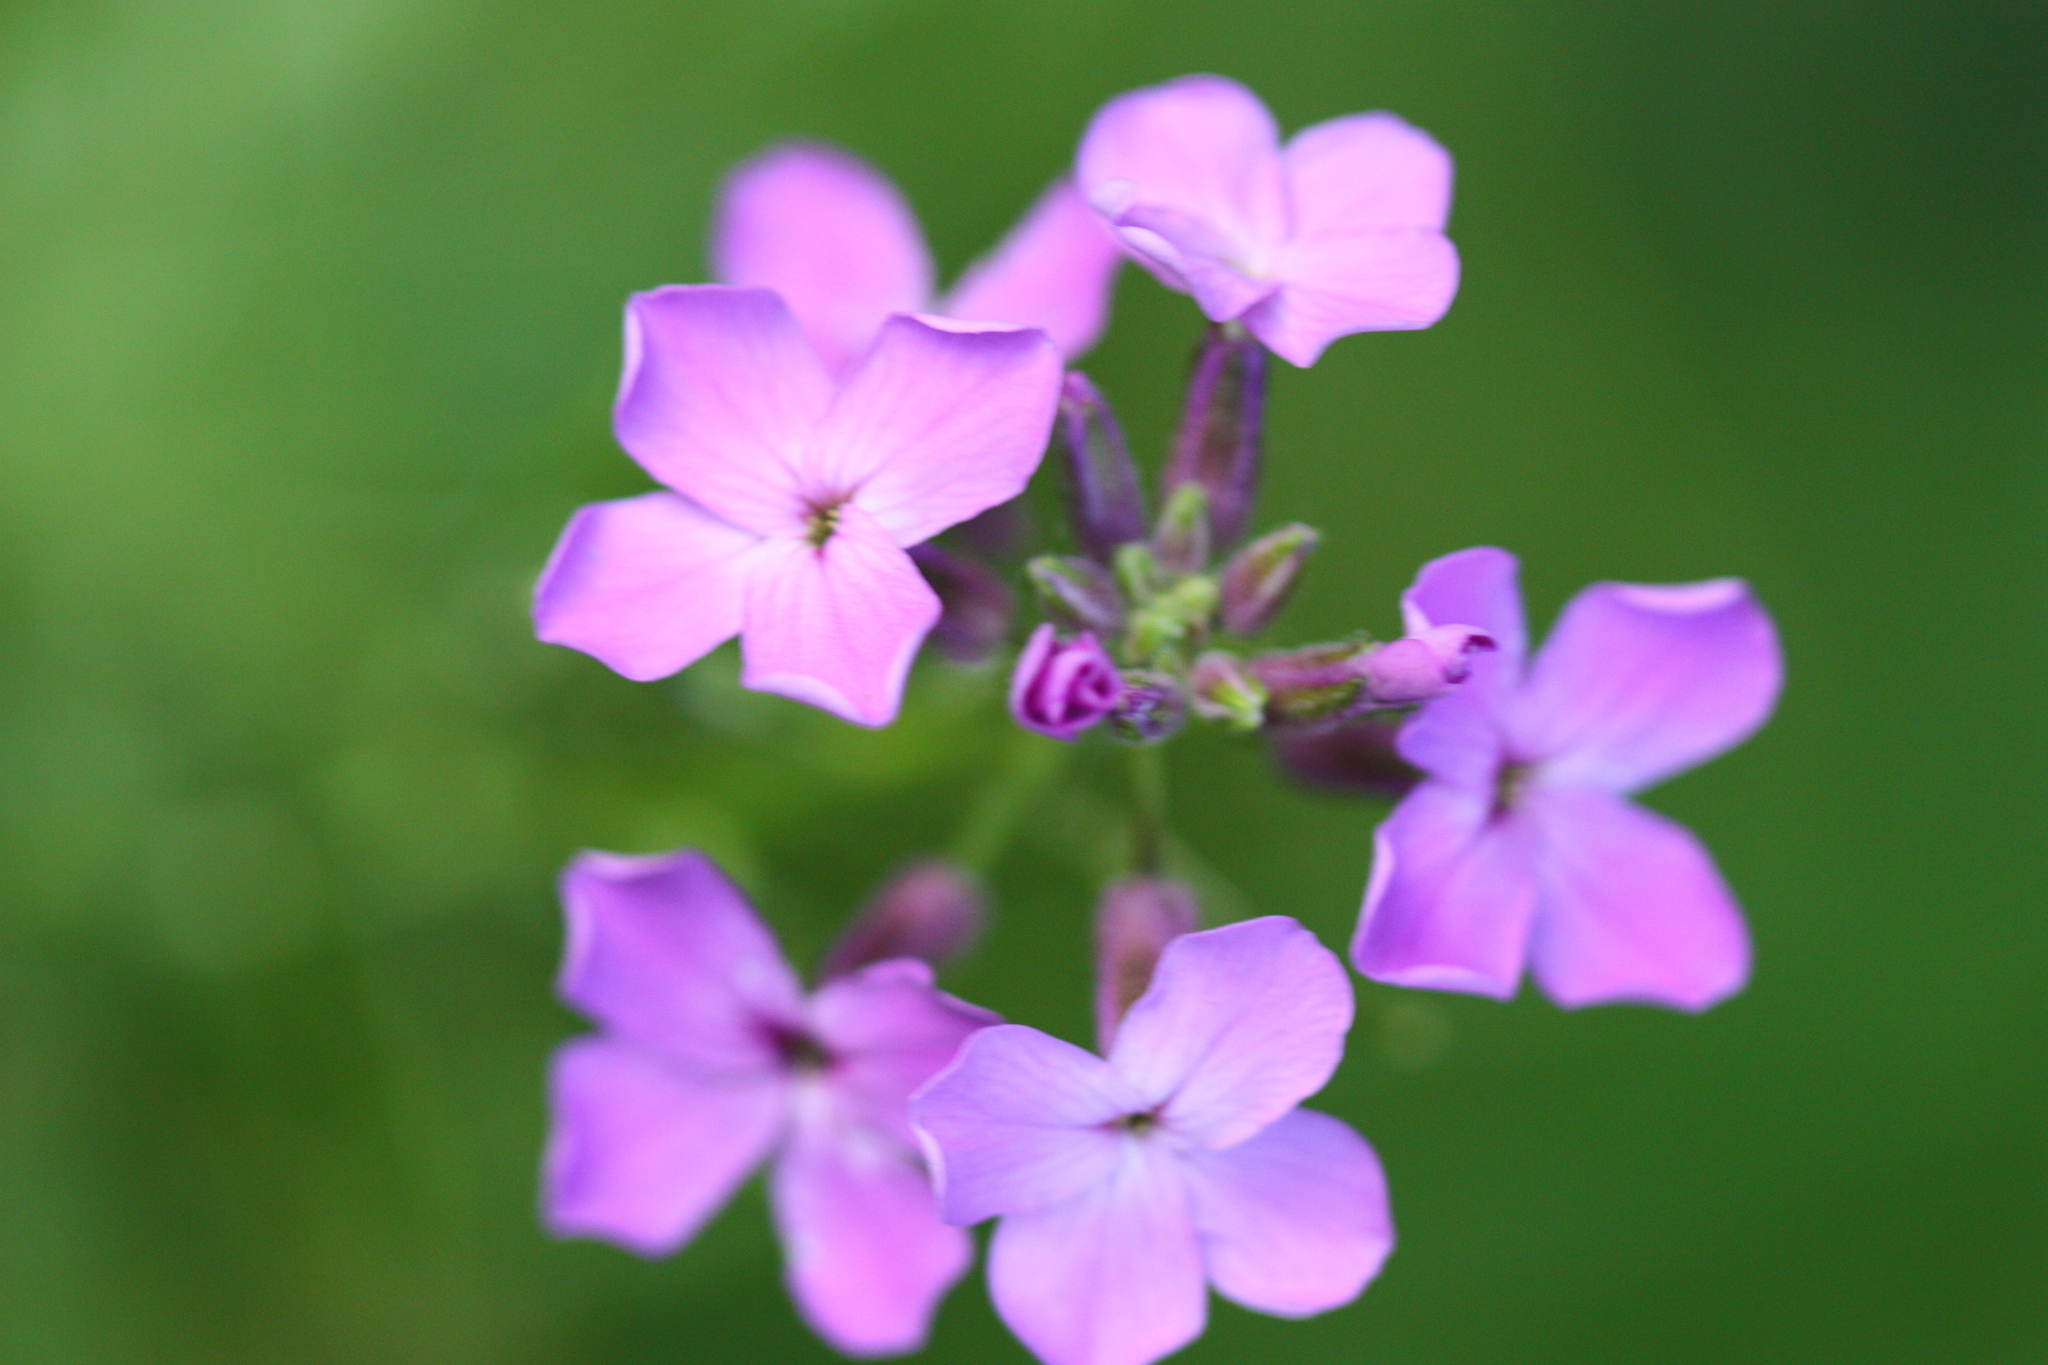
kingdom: Plantae
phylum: Tracheophyta
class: Magnoliopsida
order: Brassicales
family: Brassicaceae
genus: Hesperis
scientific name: Hesperis matronalis
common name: Dame's-violet
